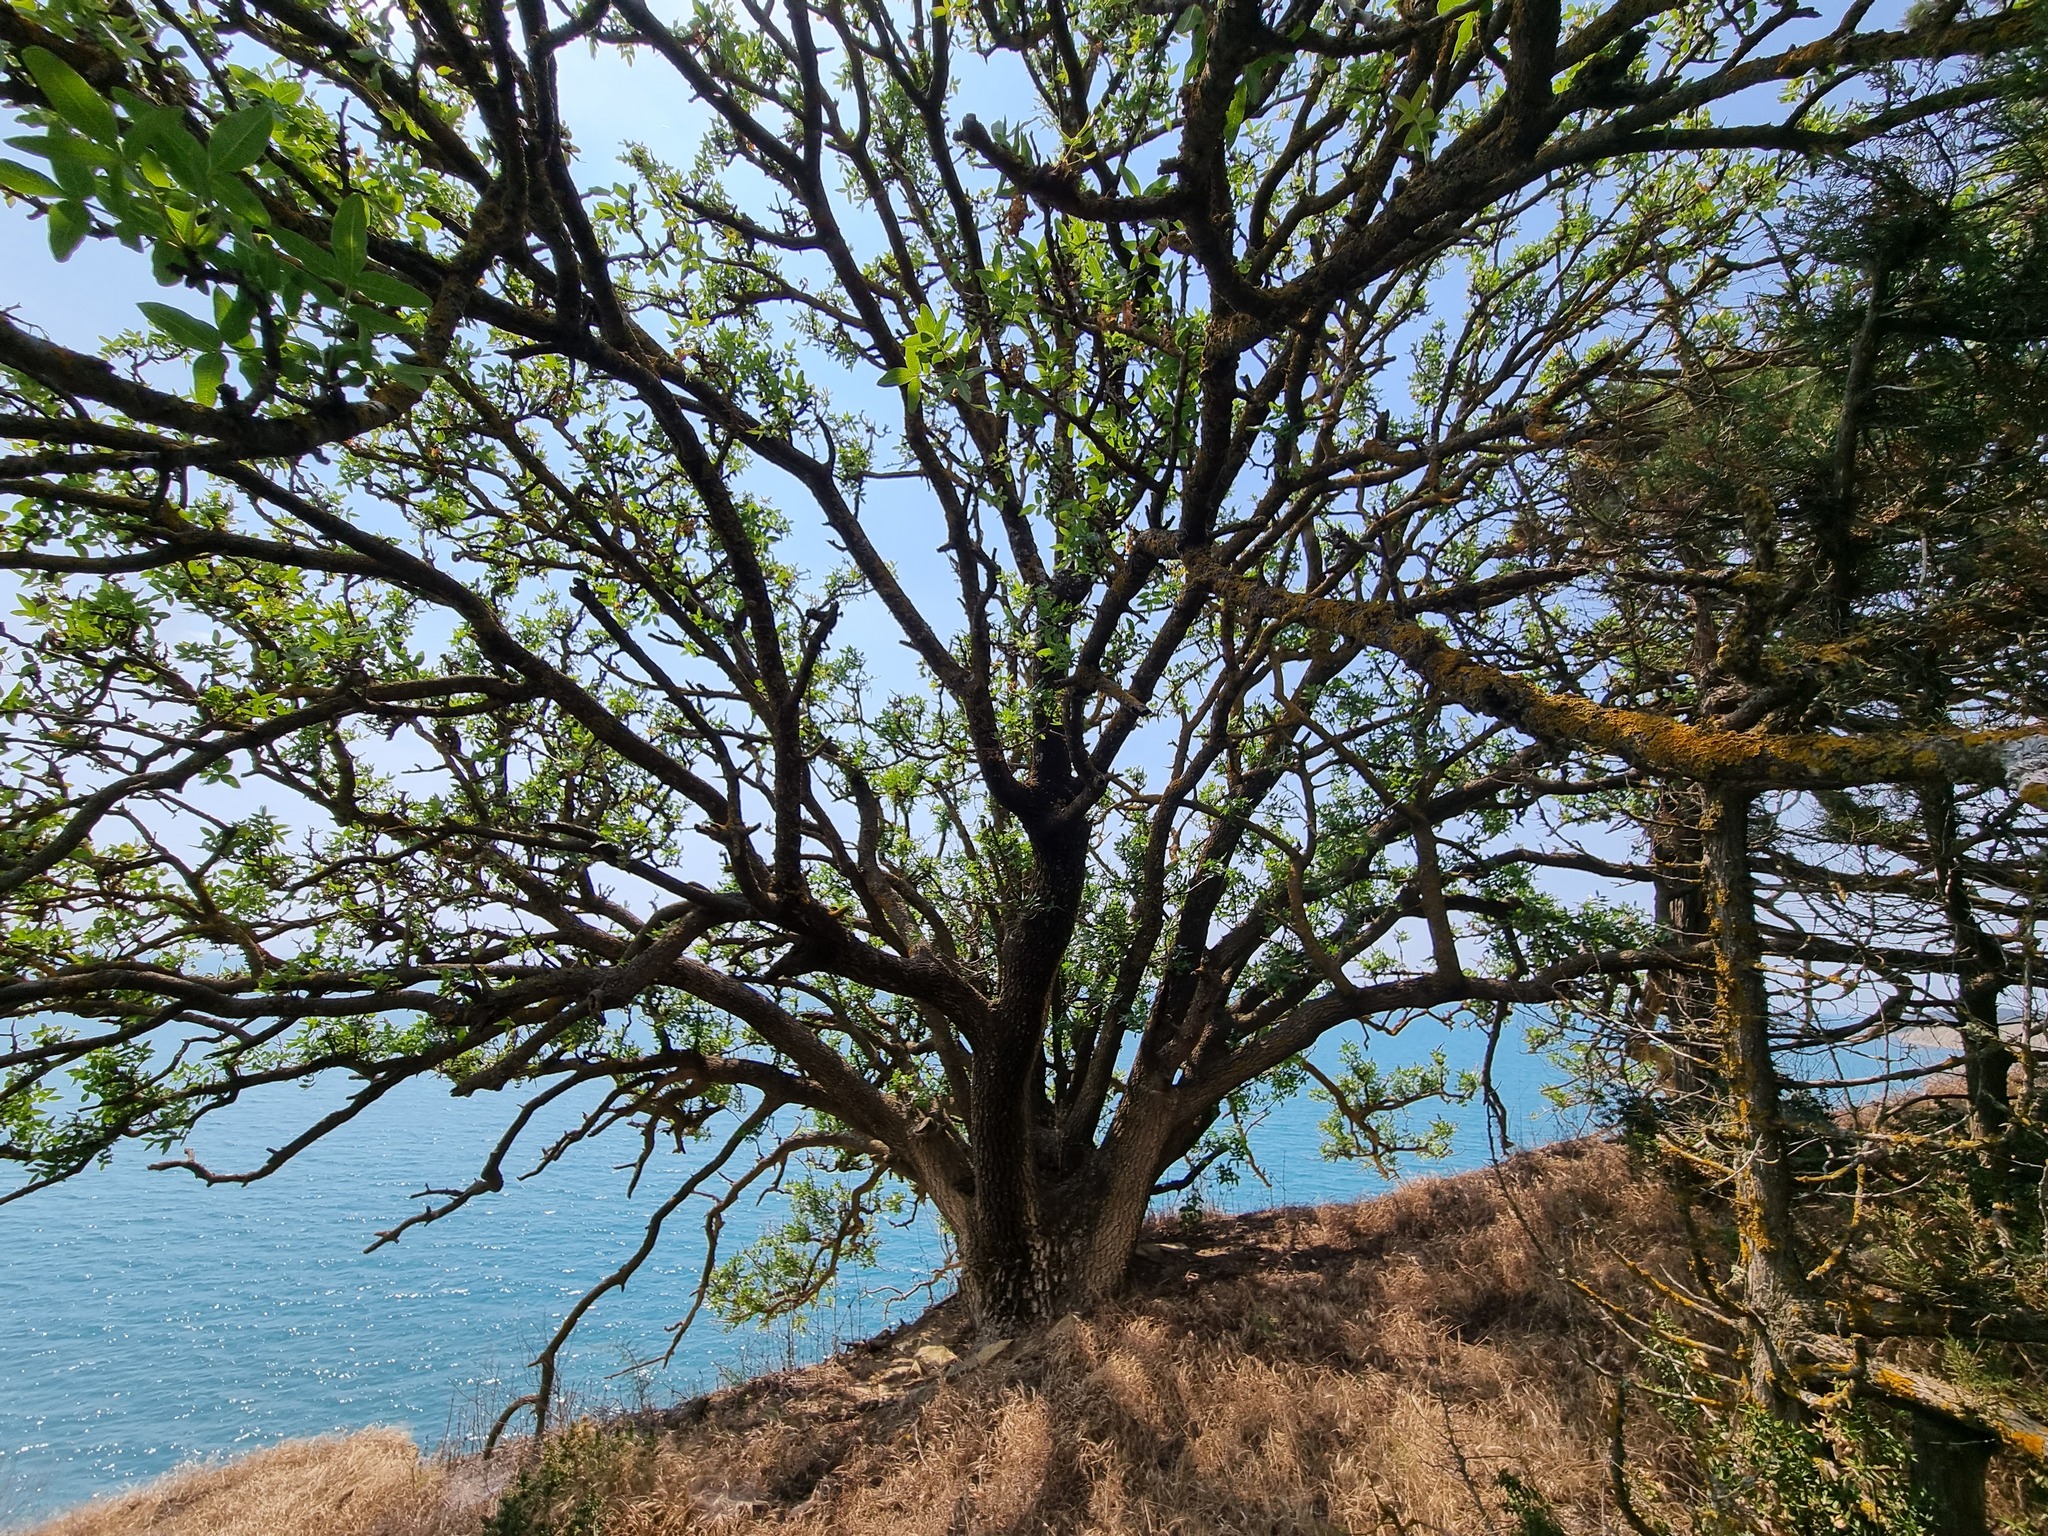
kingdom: Plantae
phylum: Tracheophyta
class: Magnoliopsida
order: Sapindales
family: Anacardiaceae
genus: Pistacia
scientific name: Pistacia atlantica
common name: Mt. atlas mastic tree
